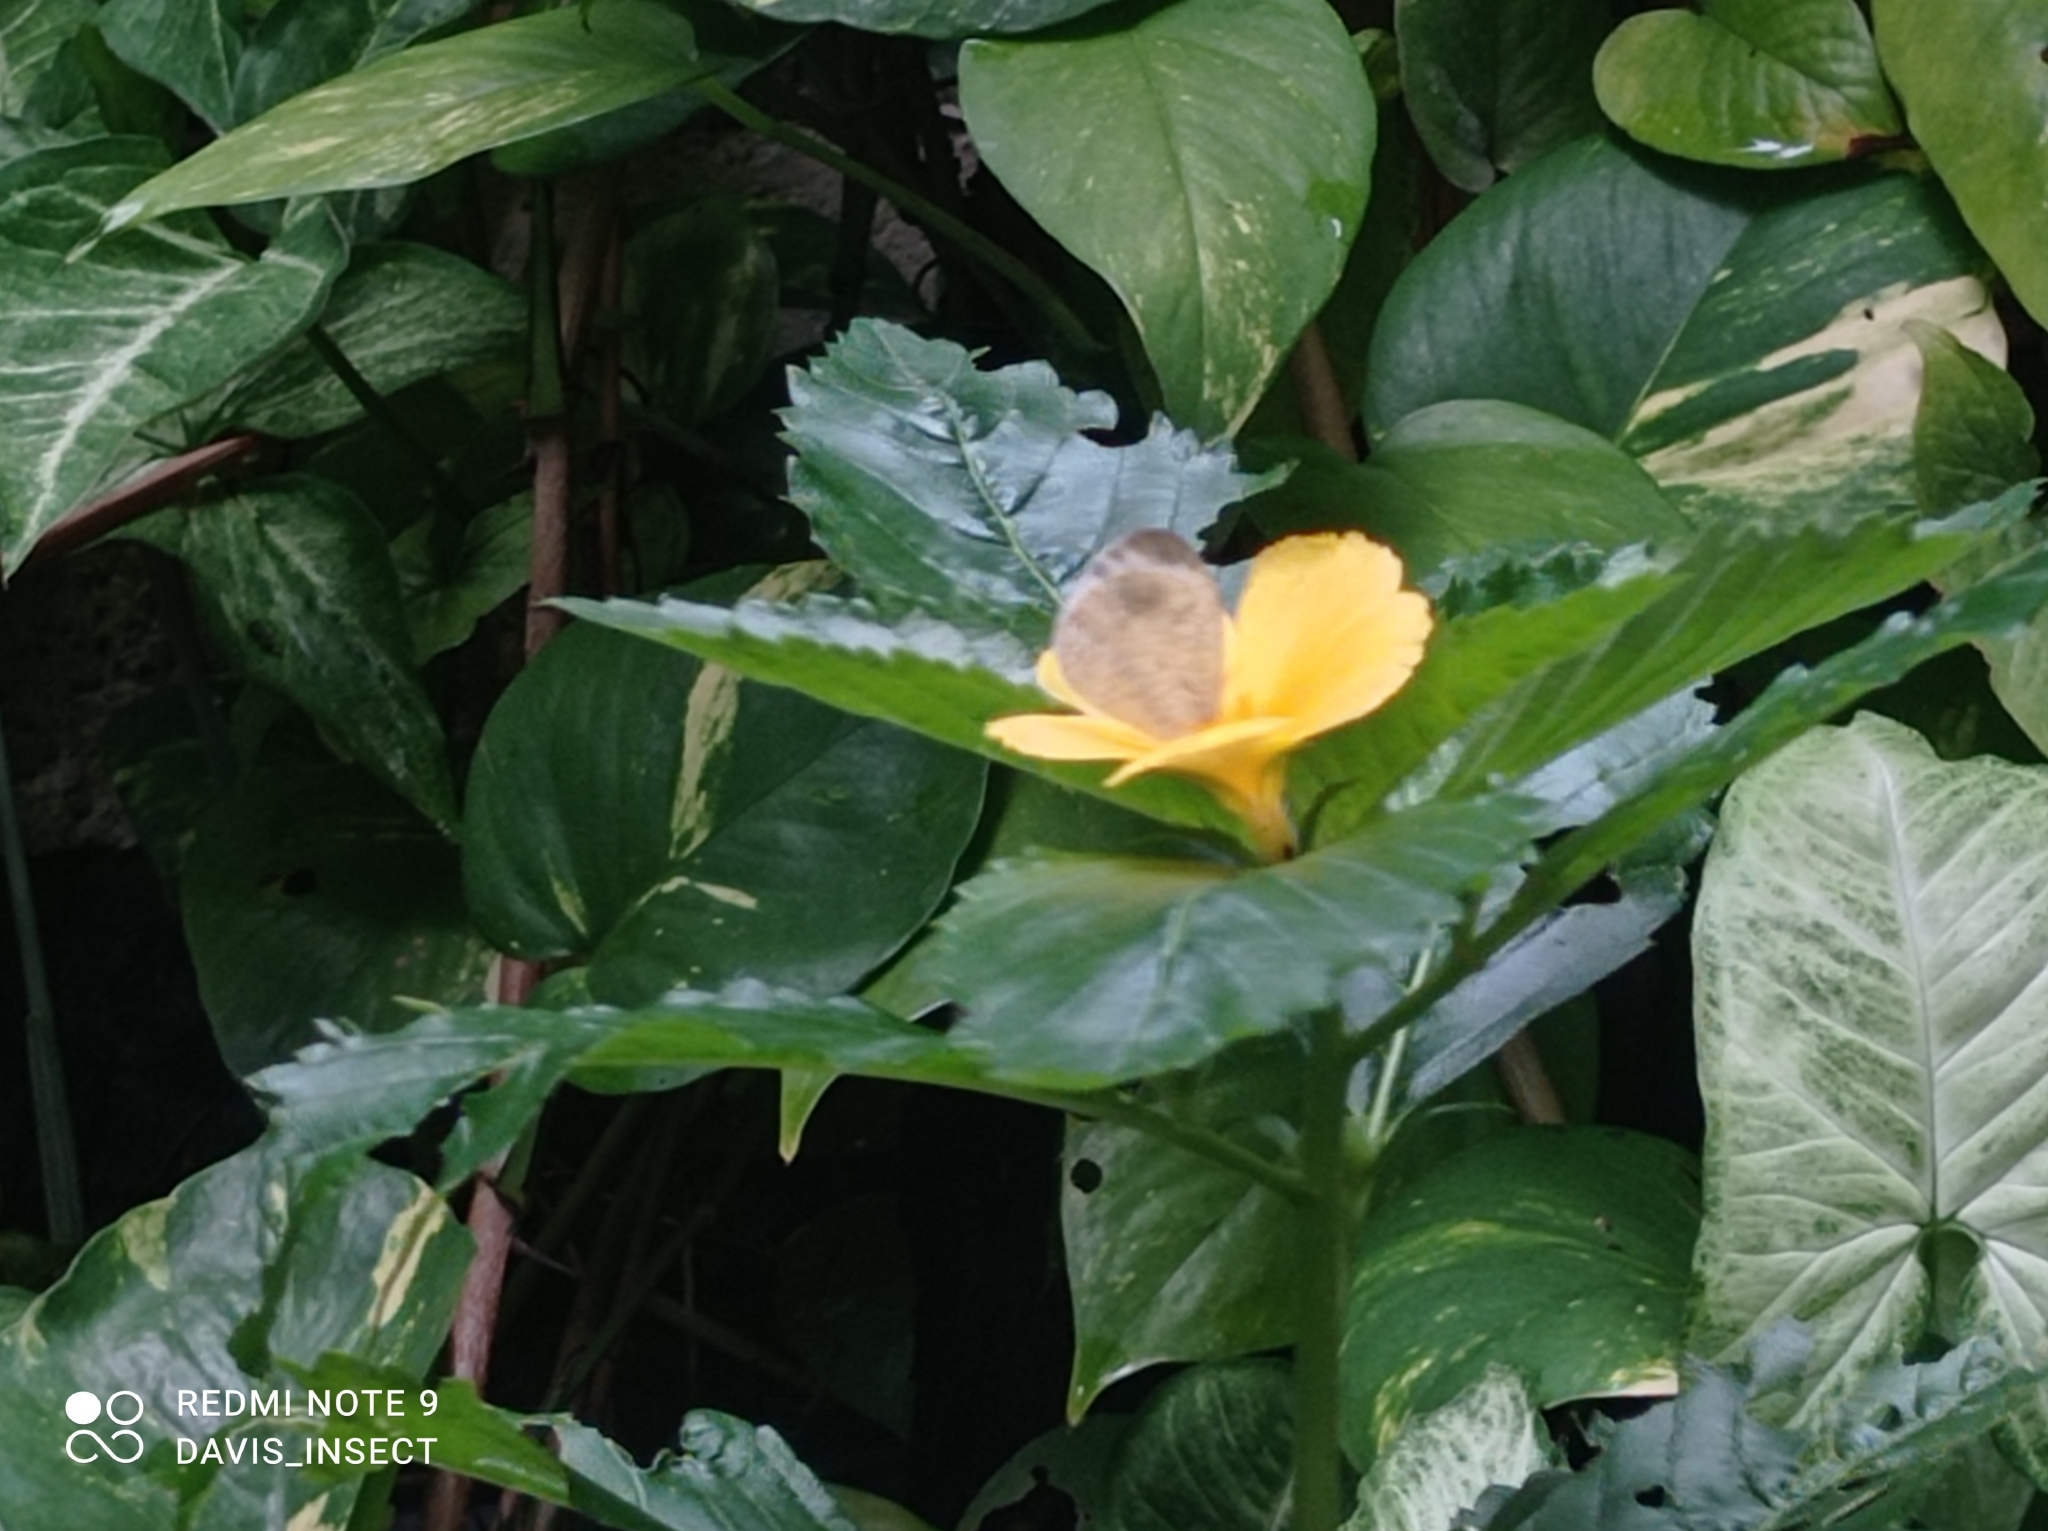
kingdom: Animalia
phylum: Arthropoda
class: Insecta
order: Lepidoptera
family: Pieridae
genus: Leptosia
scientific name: Leptosia nina
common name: Psyche
